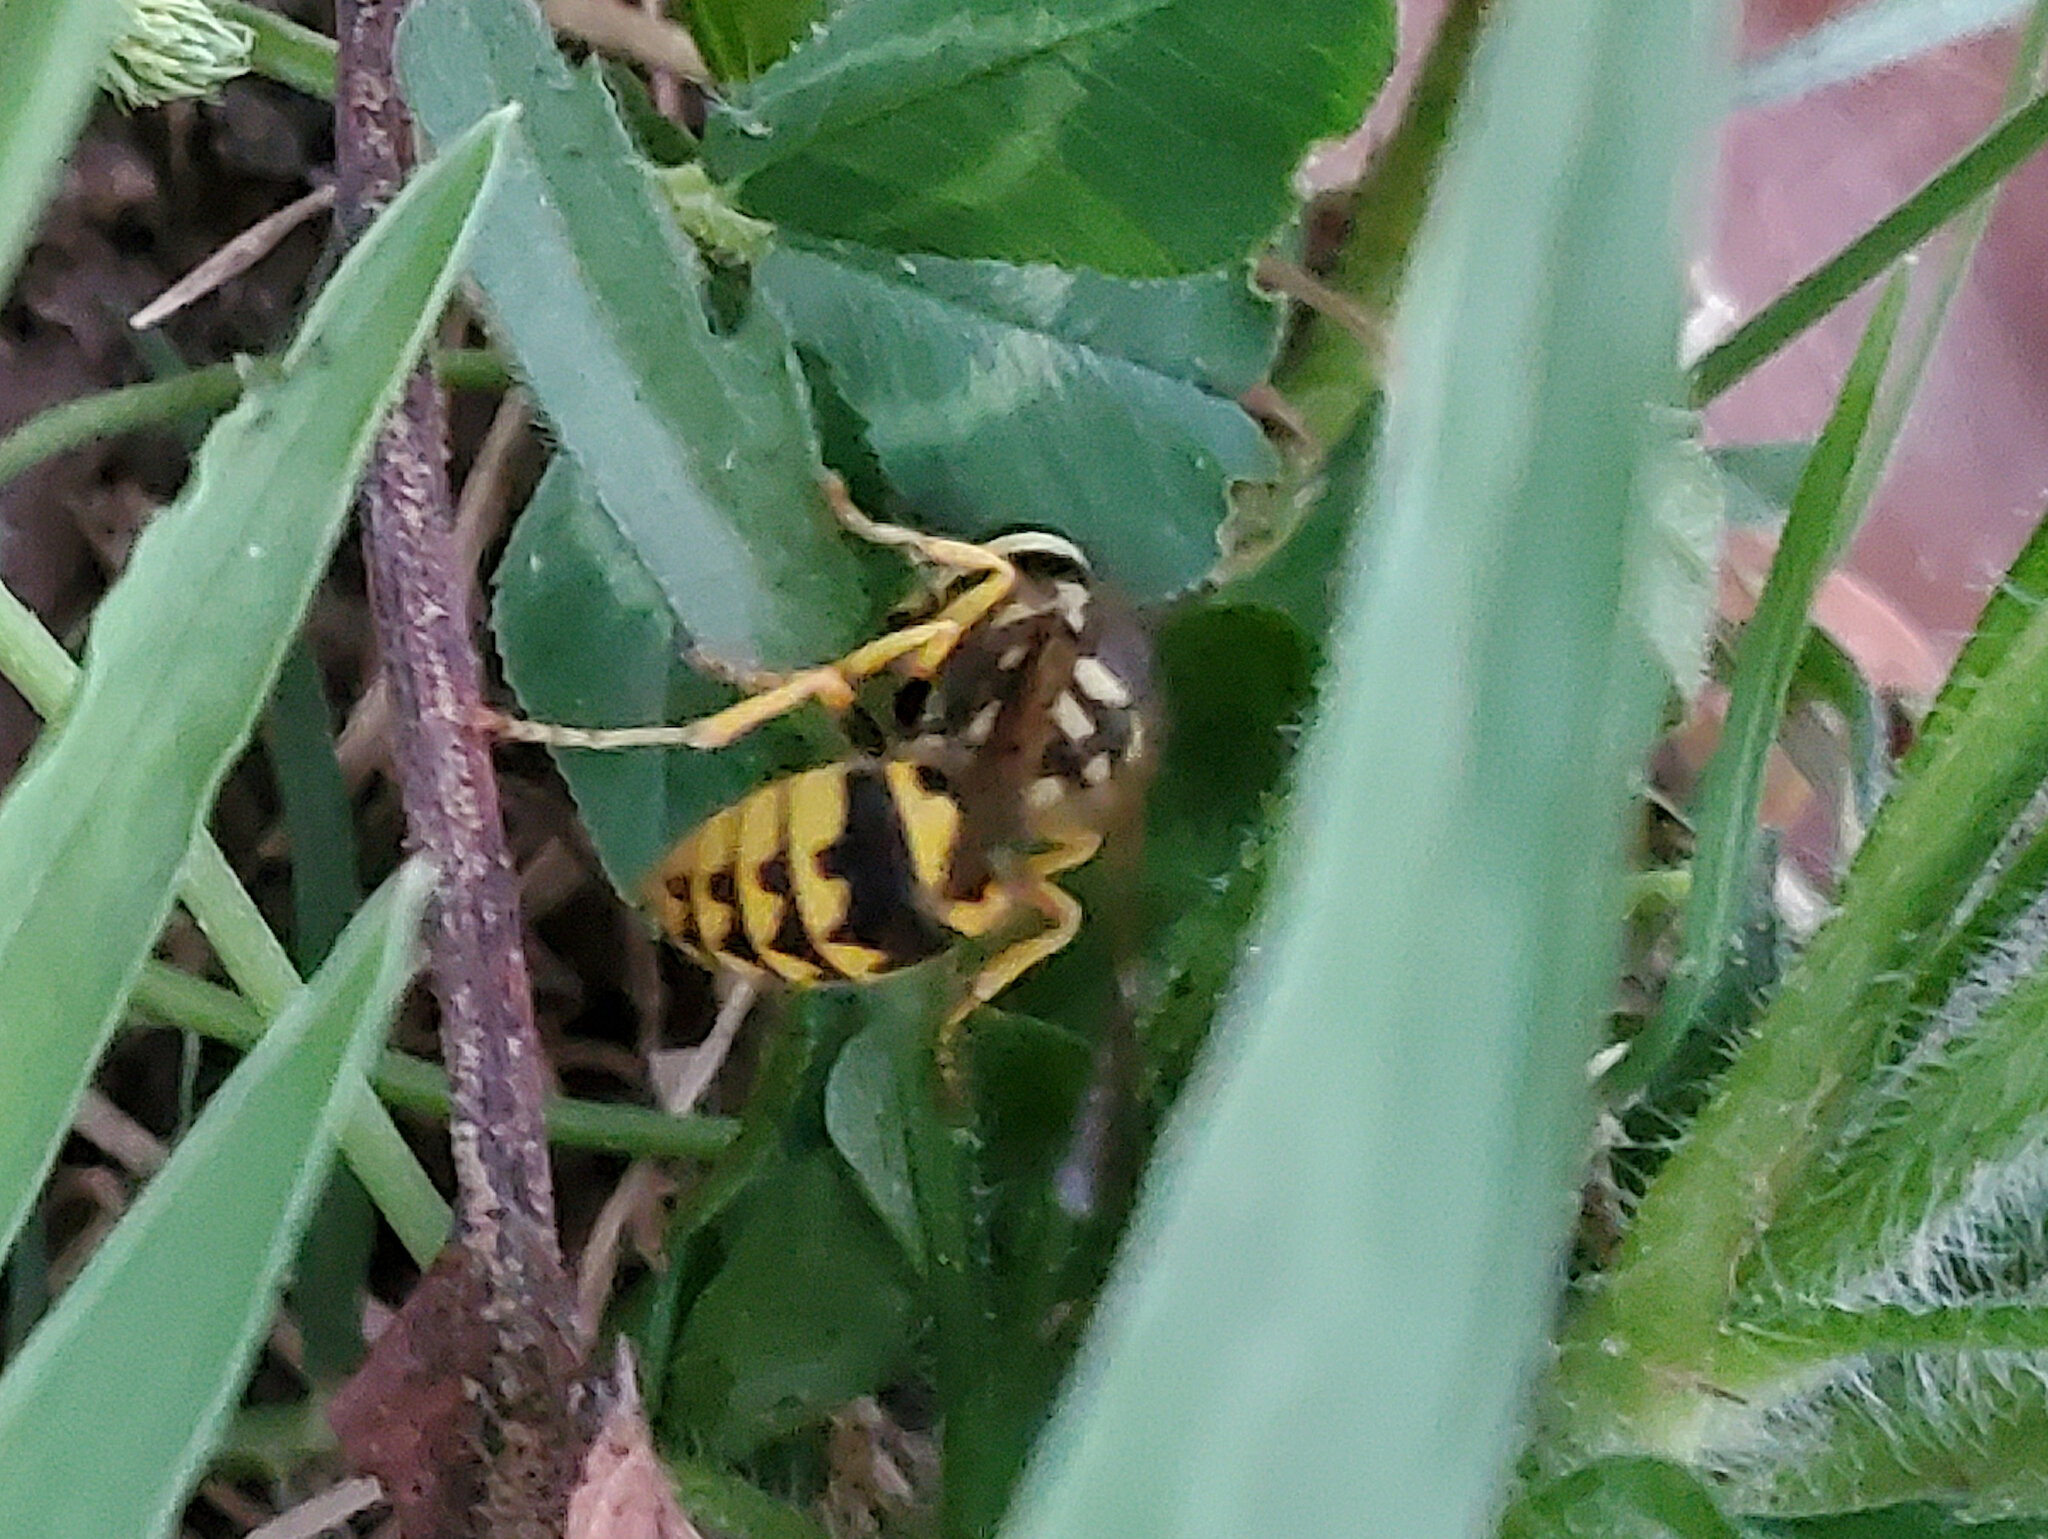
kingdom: Animalia
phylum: Arthropoda
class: Insecta
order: Hymenoptera
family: Vespidae
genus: Vespula
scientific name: Vespula pensylvanica
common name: Western yellowjacket
